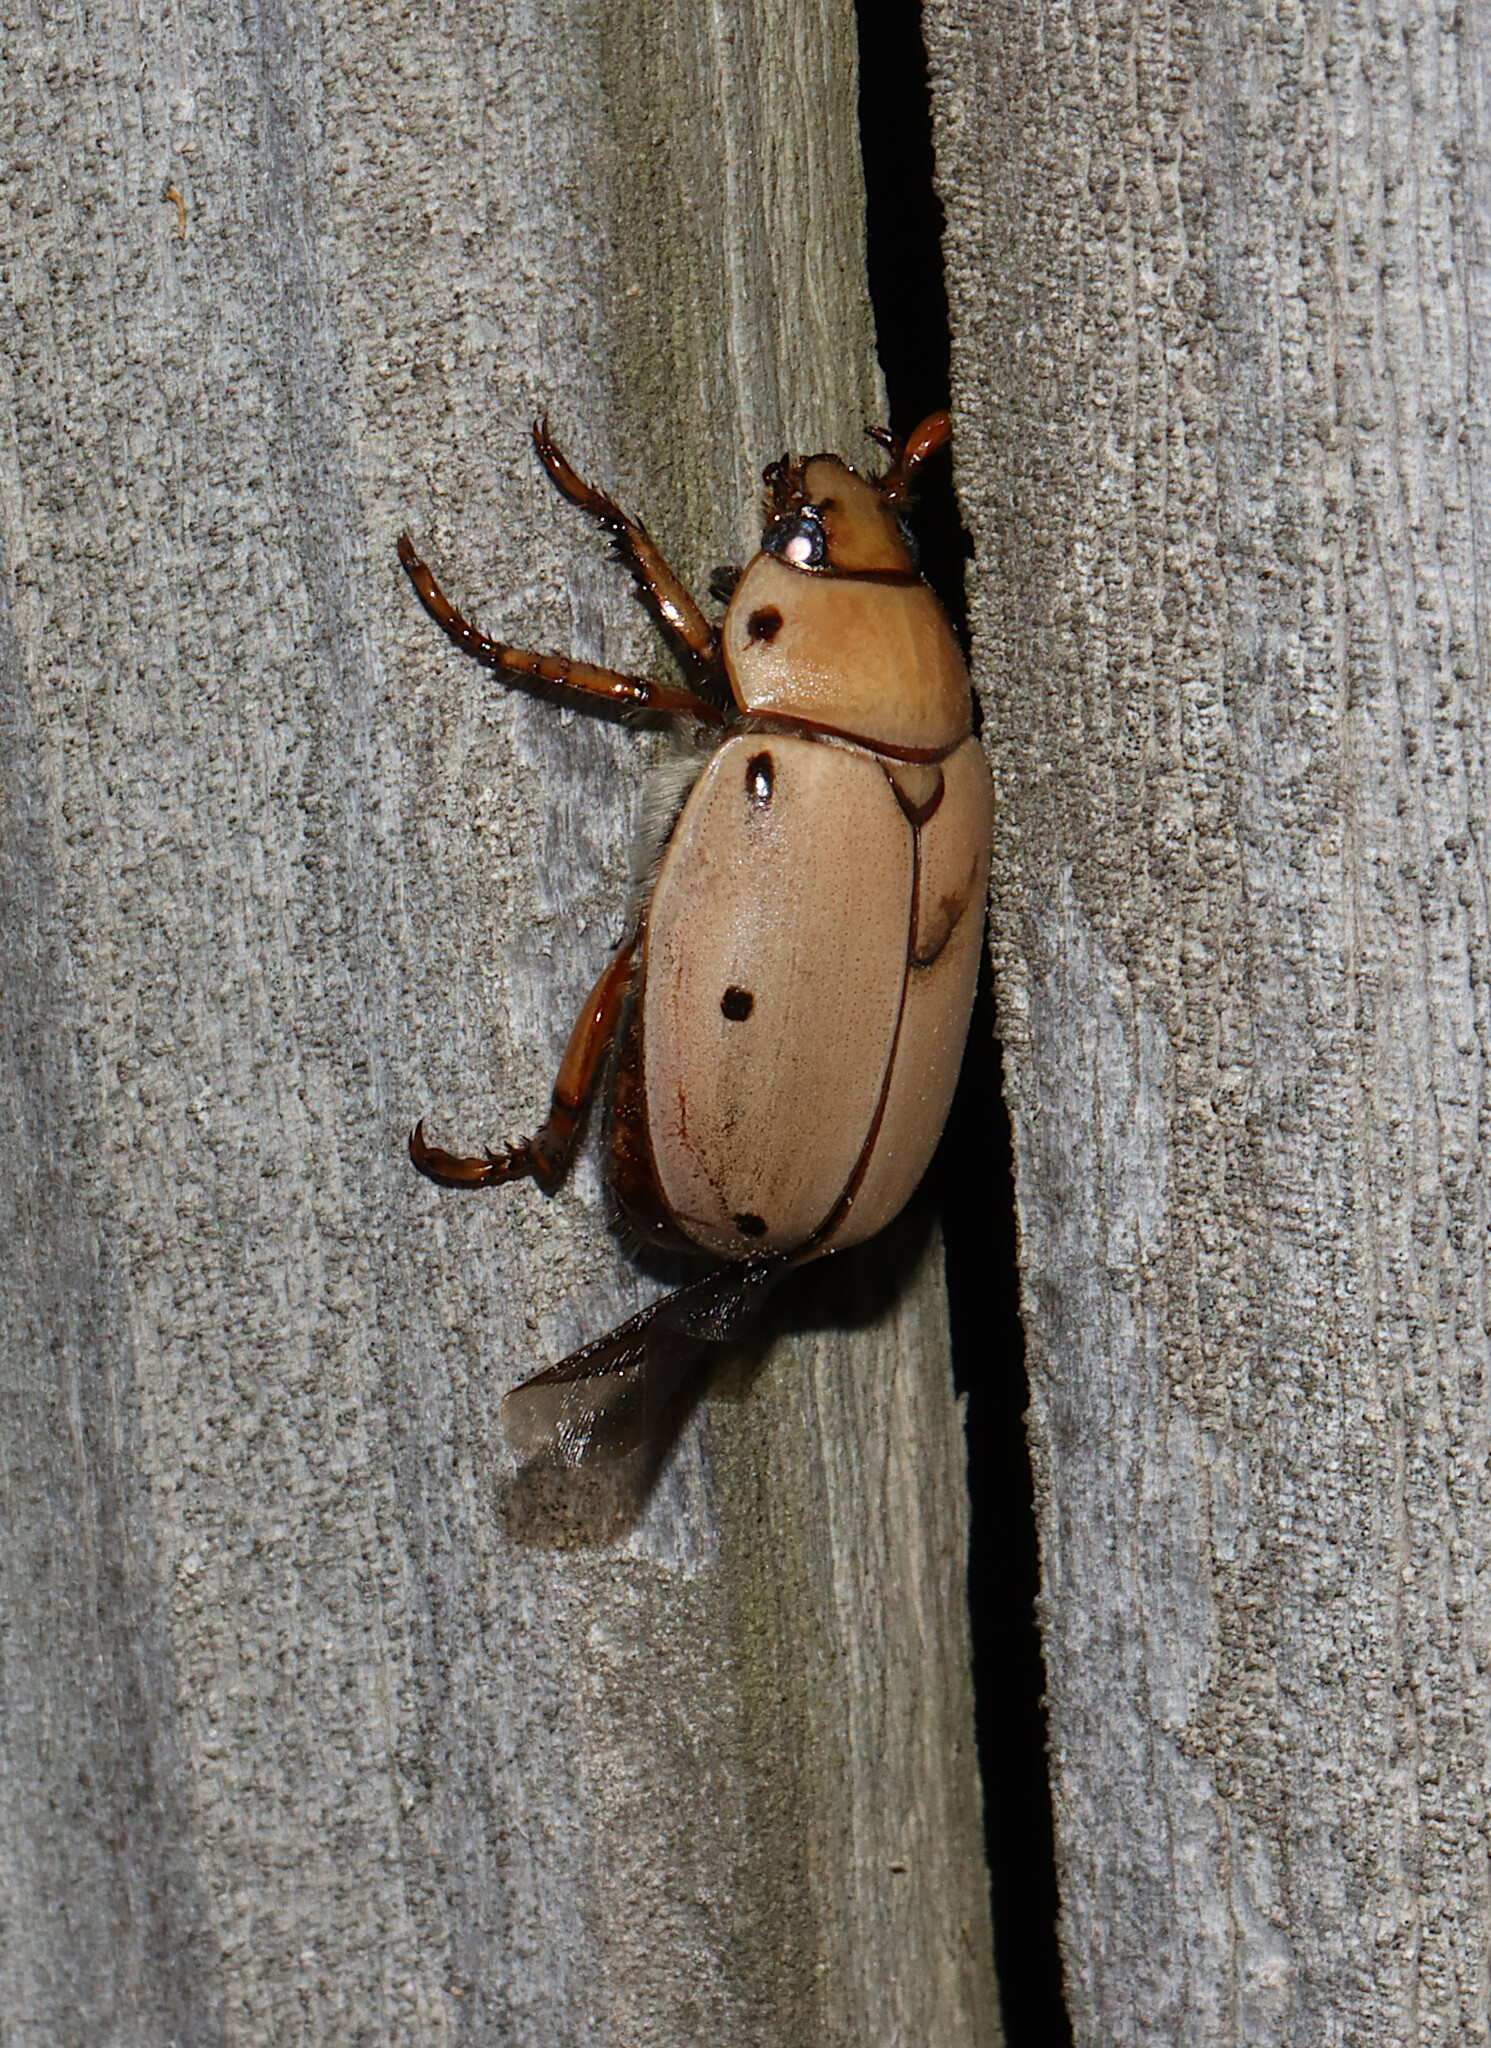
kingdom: Animalia
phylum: Arthropoda
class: Insecta
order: Coleoptera
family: Scarabaeidae
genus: Pelidnota
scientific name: Pelidnota punctata
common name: Grapevine beetle
